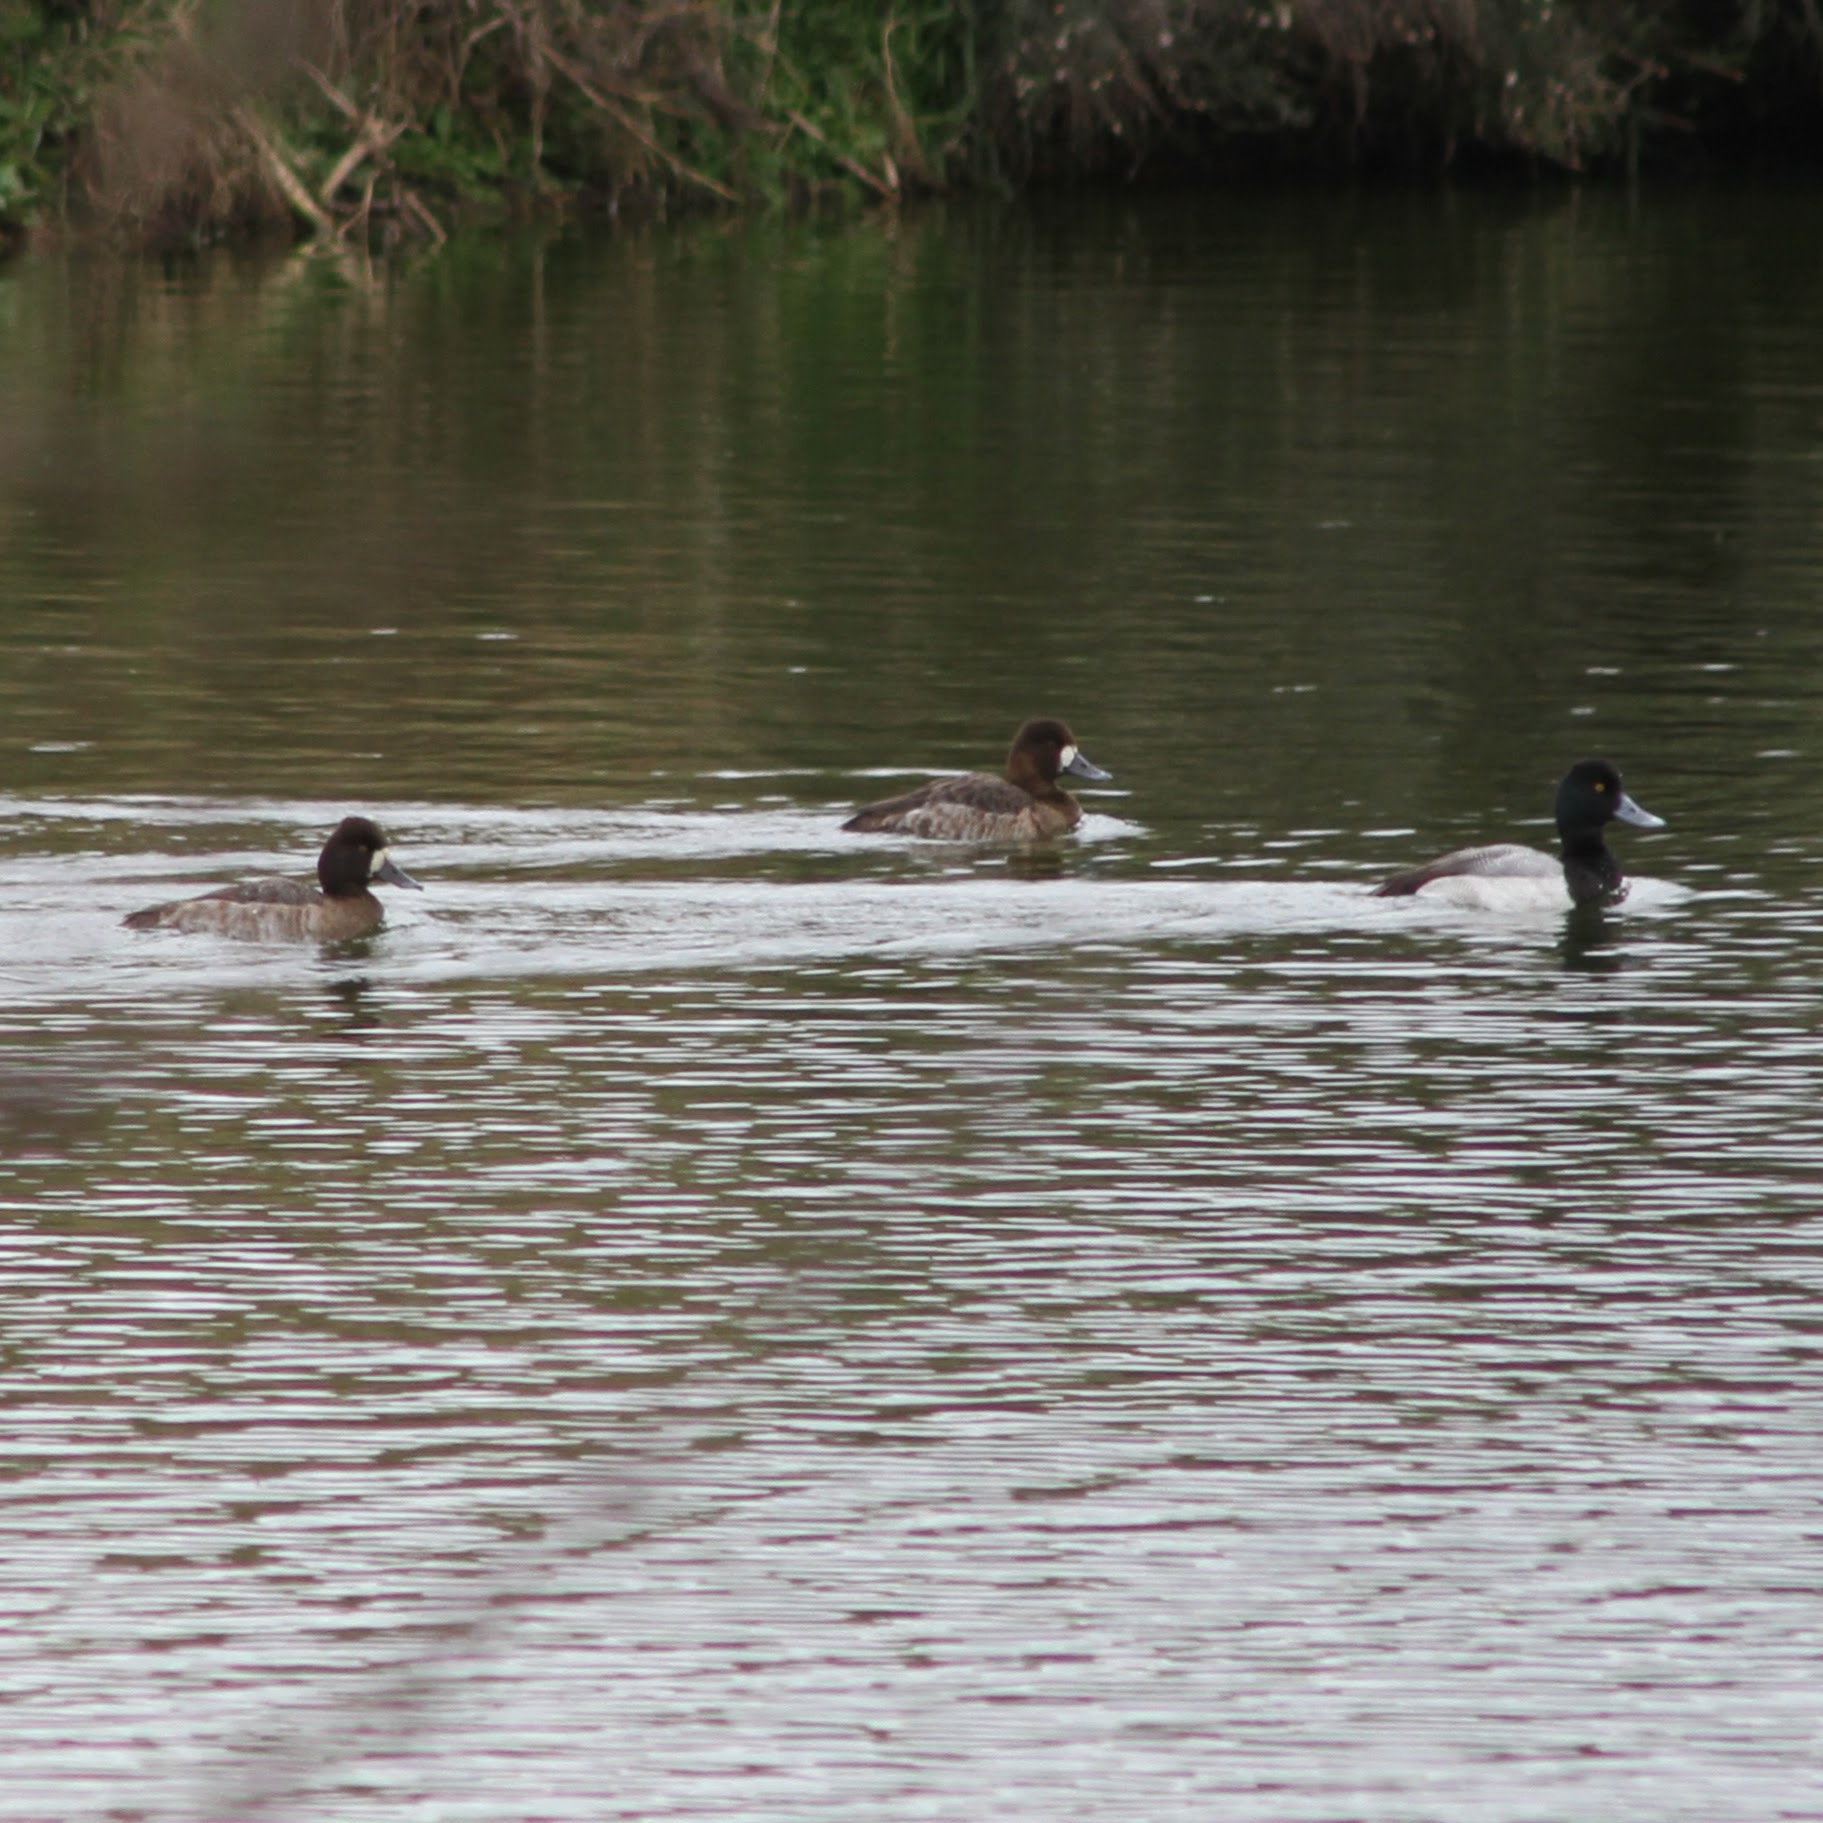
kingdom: Animalia
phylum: Chordata
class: Aves
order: Anseriformes
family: Anatidae
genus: Aythya
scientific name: Aythya affinis
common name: Lesser scaup
